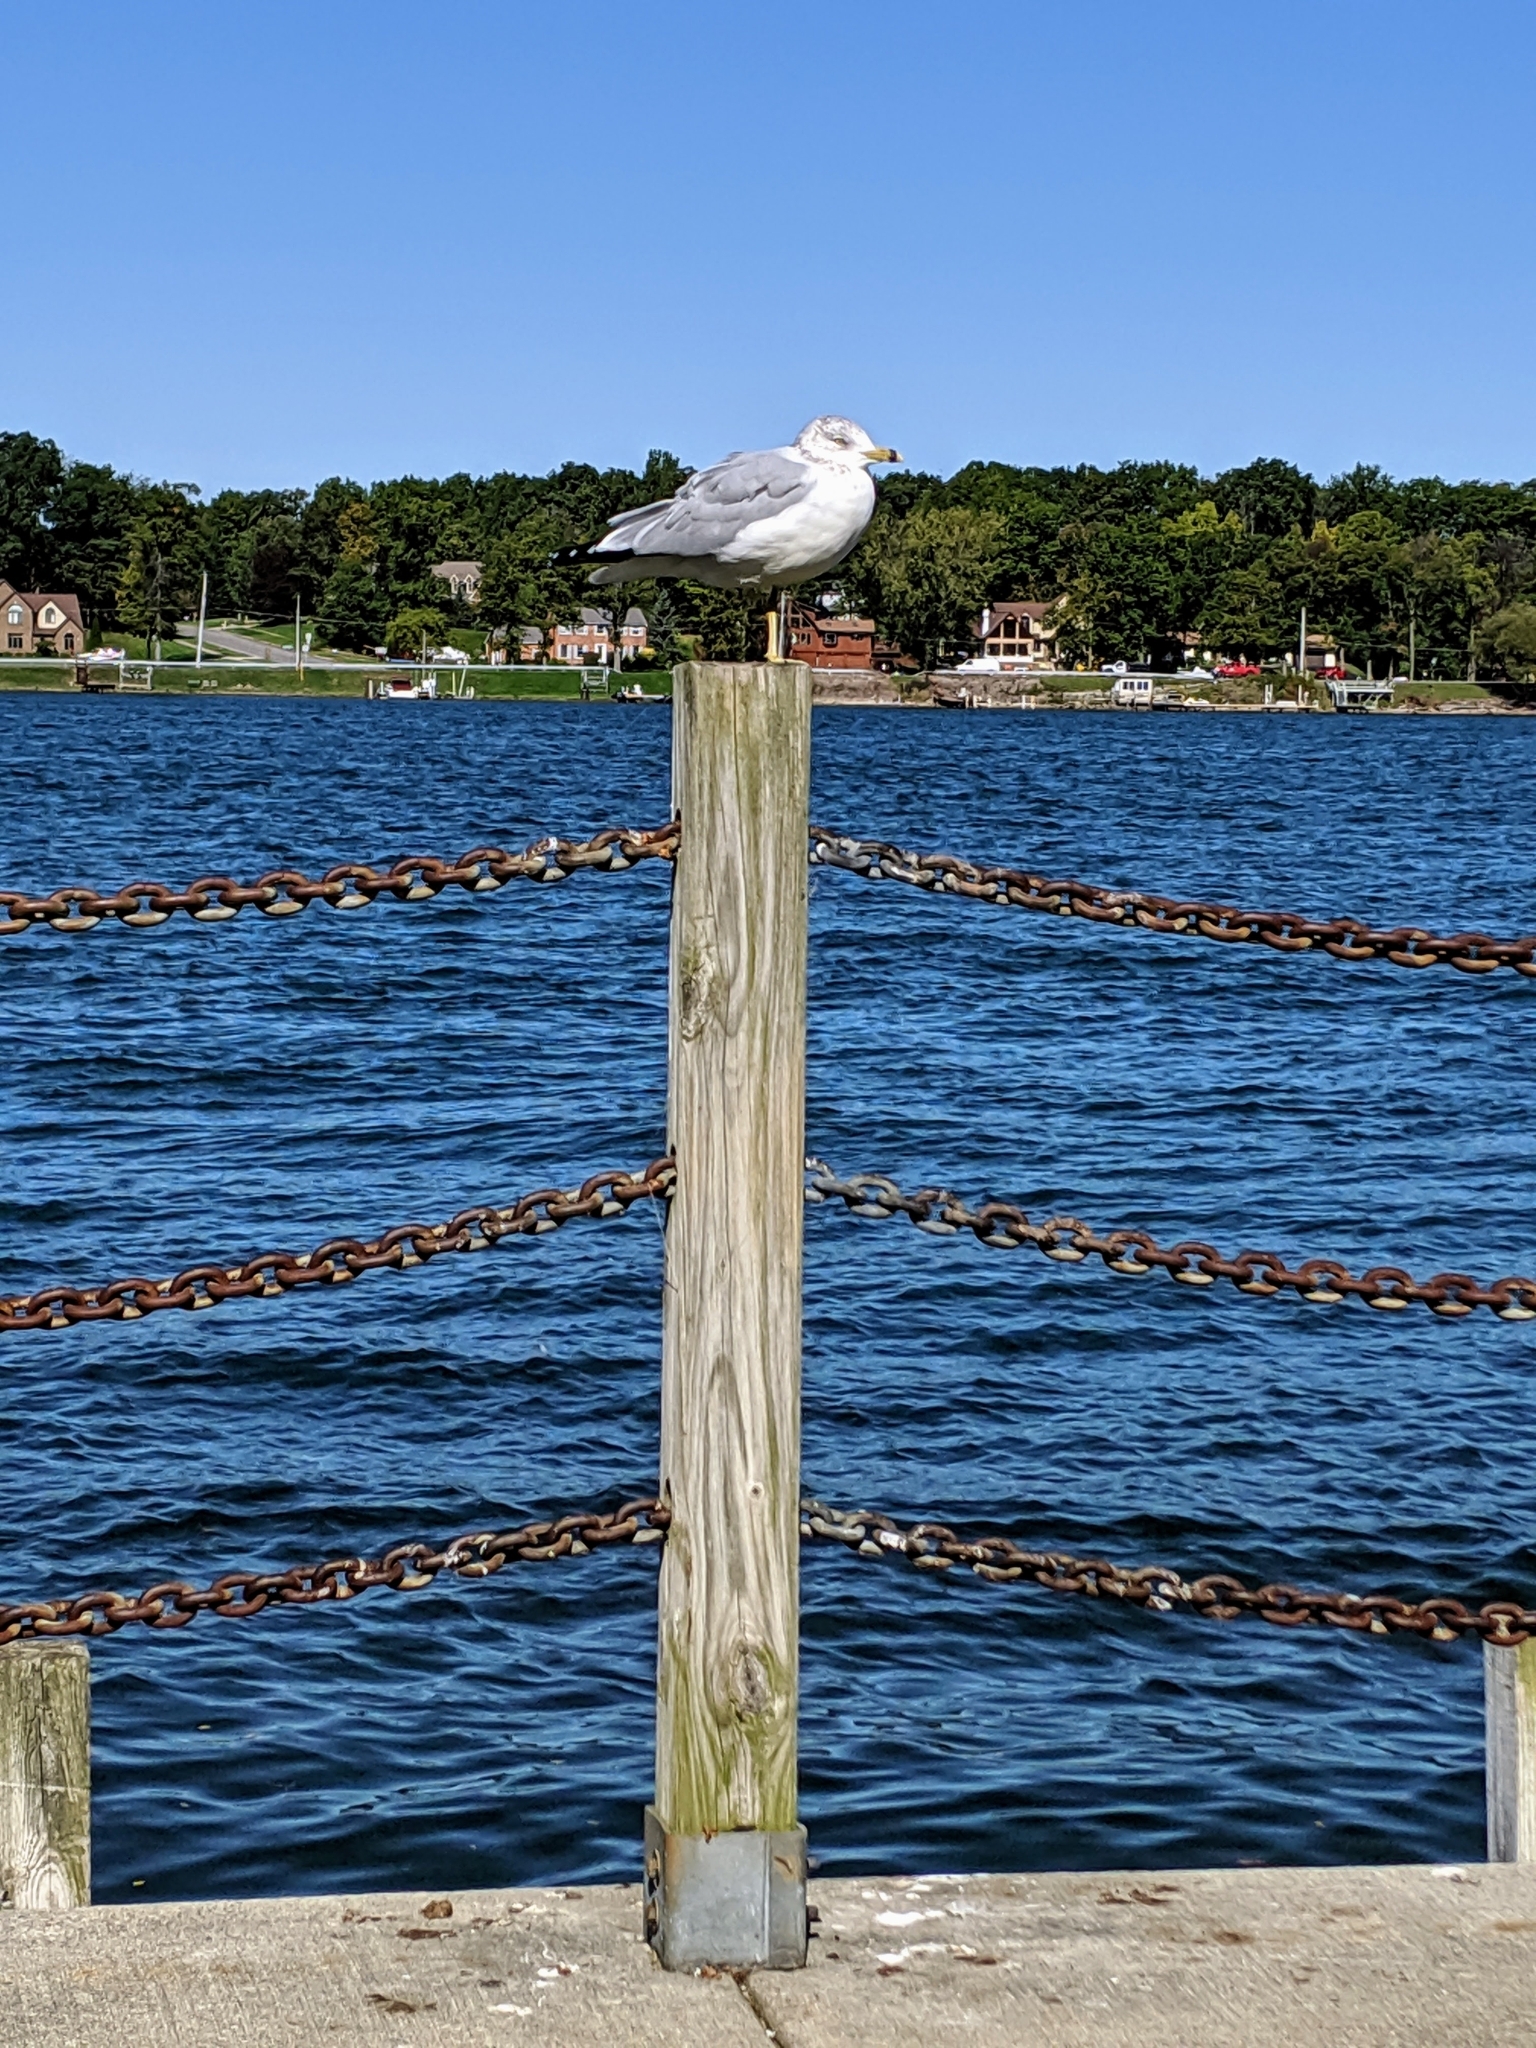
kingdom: Animalia
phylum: Chordata
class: Aves
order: Charadriiformes
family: Laridae
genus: Larus
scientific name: Larus delawarensis
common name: Ring-billed gull
